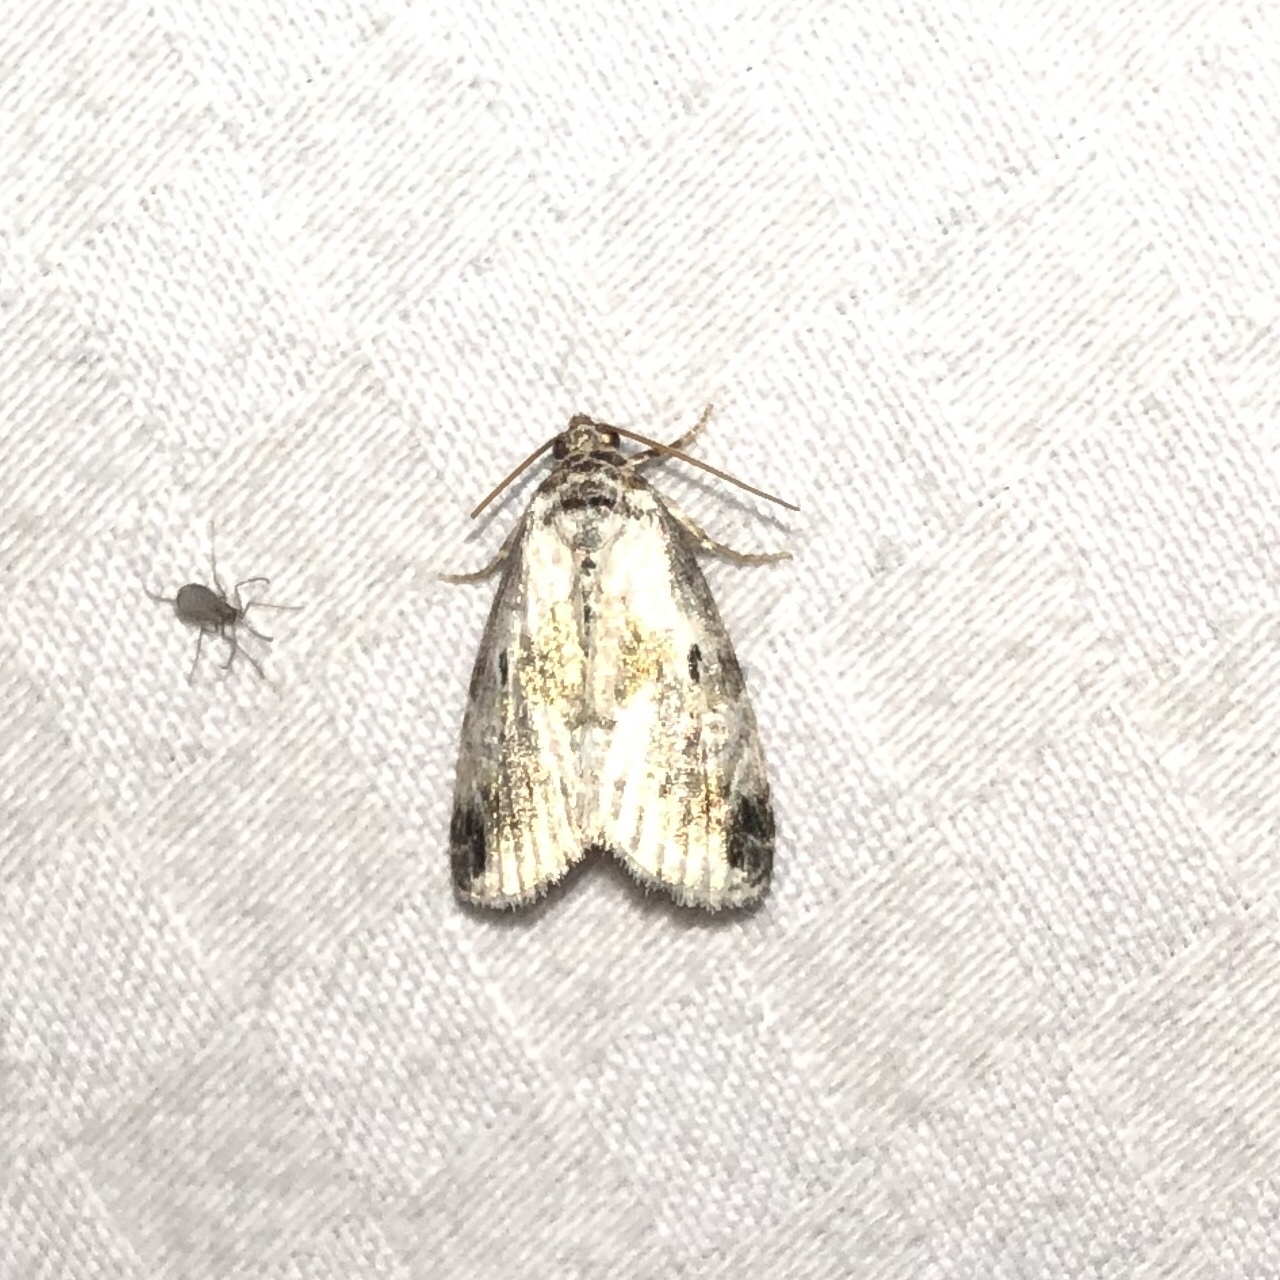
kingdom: Animalia
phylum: Arthropoda
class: Insecta
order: Lepidoptera
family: Noctuidae
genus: Maliattha
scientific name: Maliattha synochitis
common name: Black-dotted glyph
